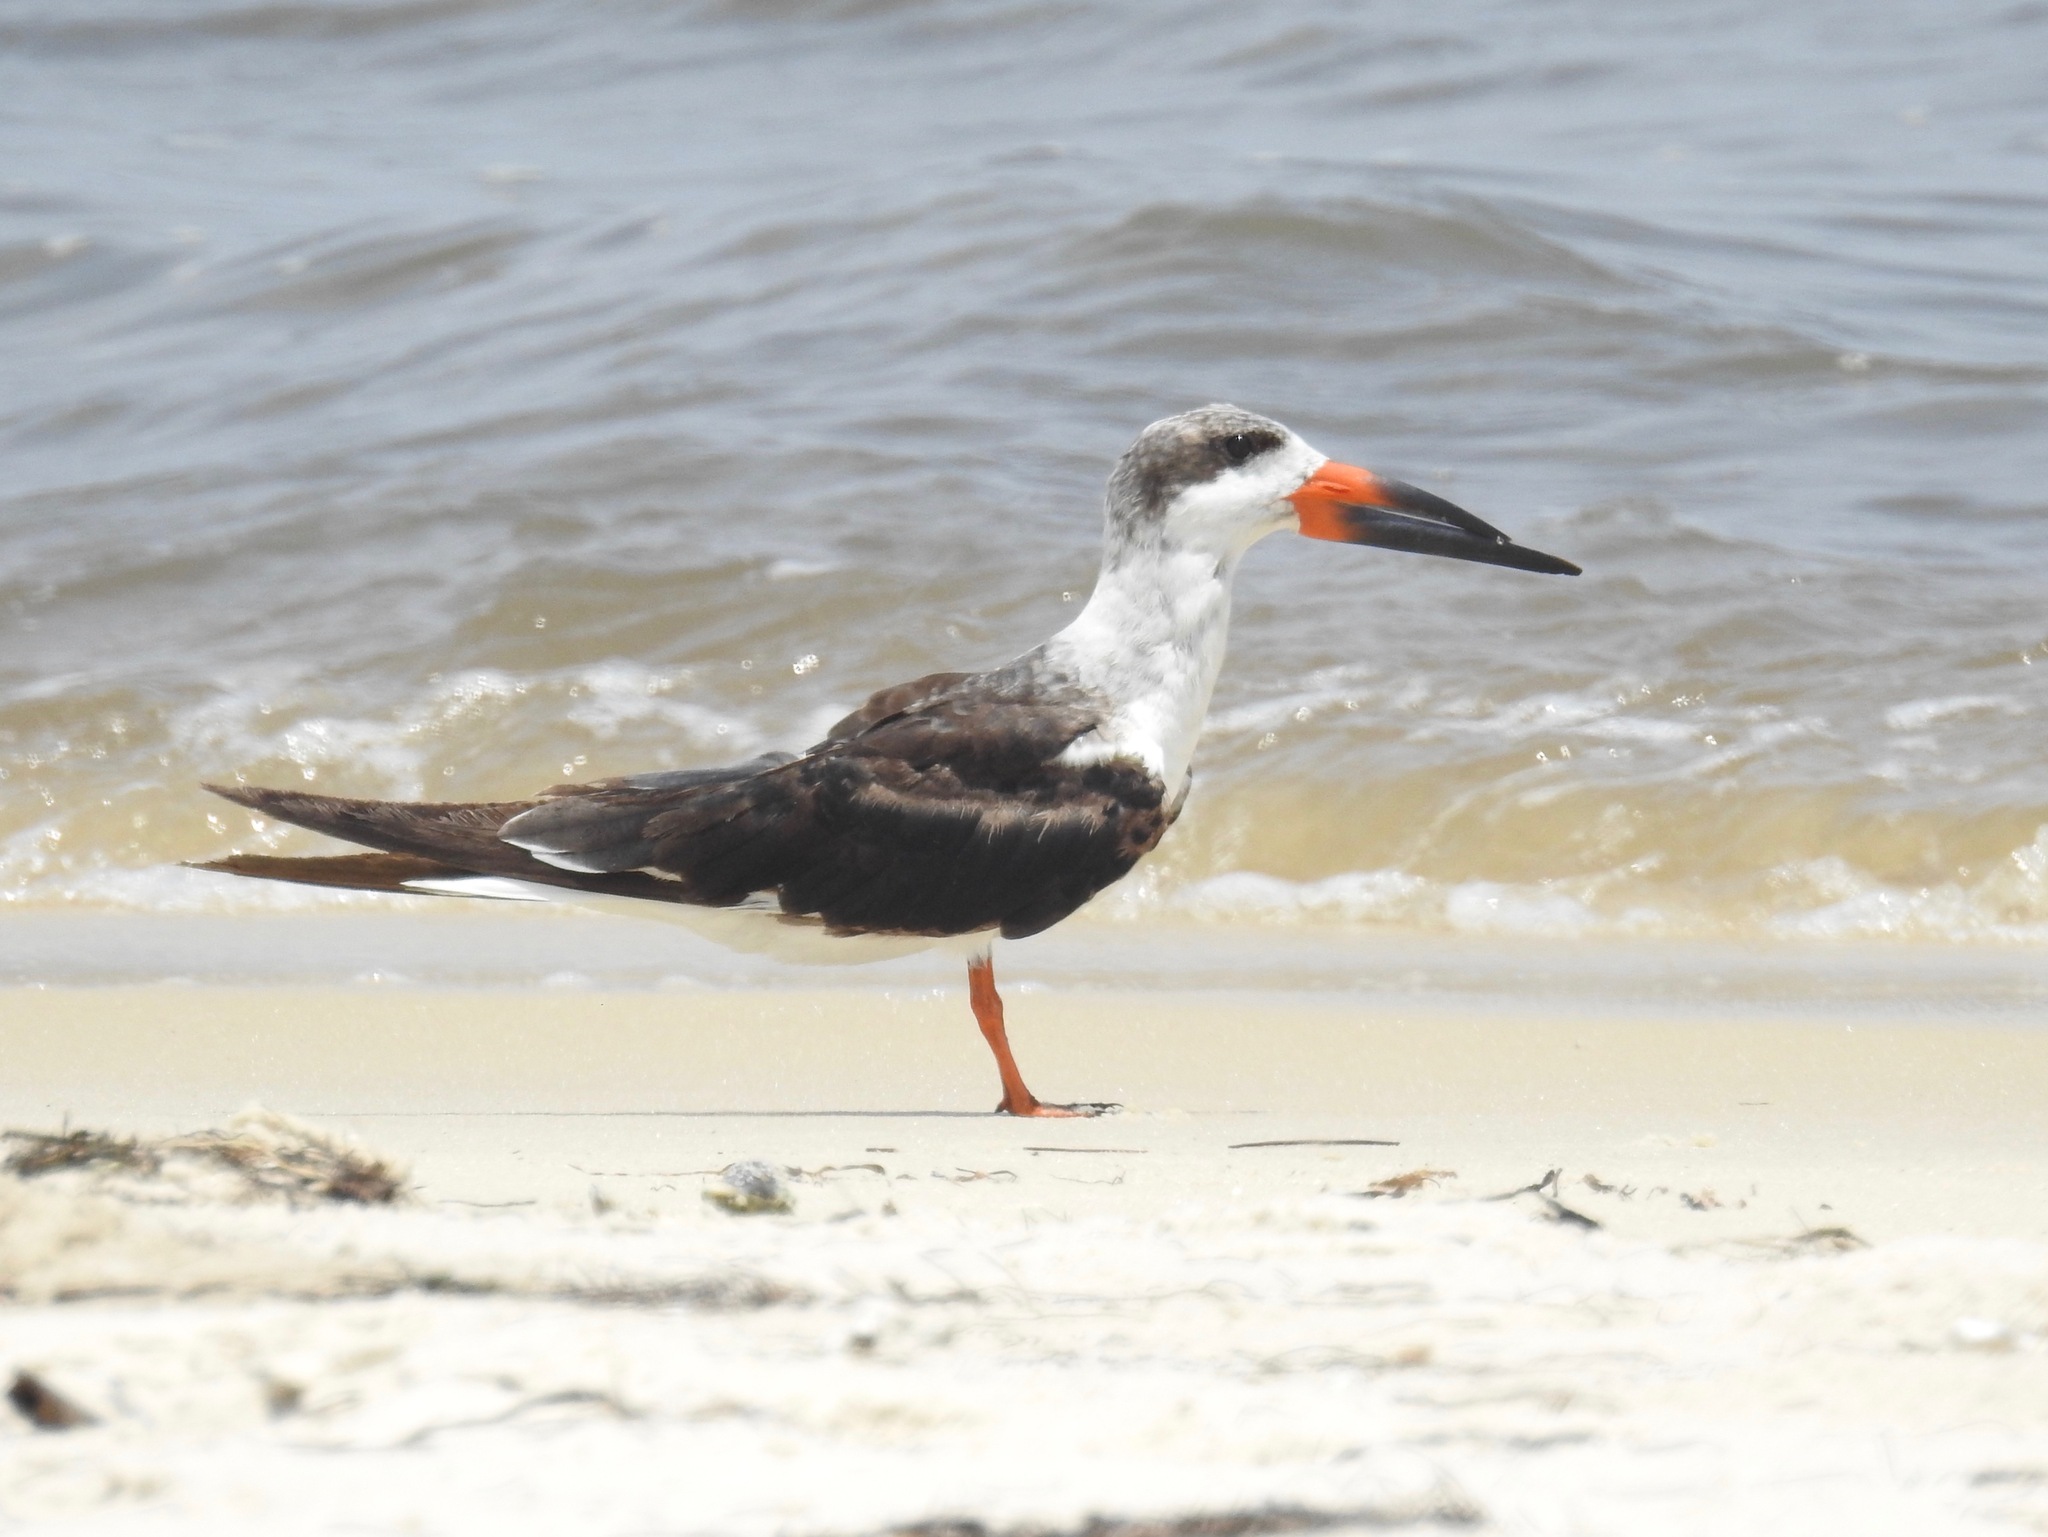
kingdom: Animalia
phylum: Chordata
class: Aves
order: Charadriiformes
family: Laridae
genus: Rynchops
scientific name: Rynchops niger
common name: Black skimmer
